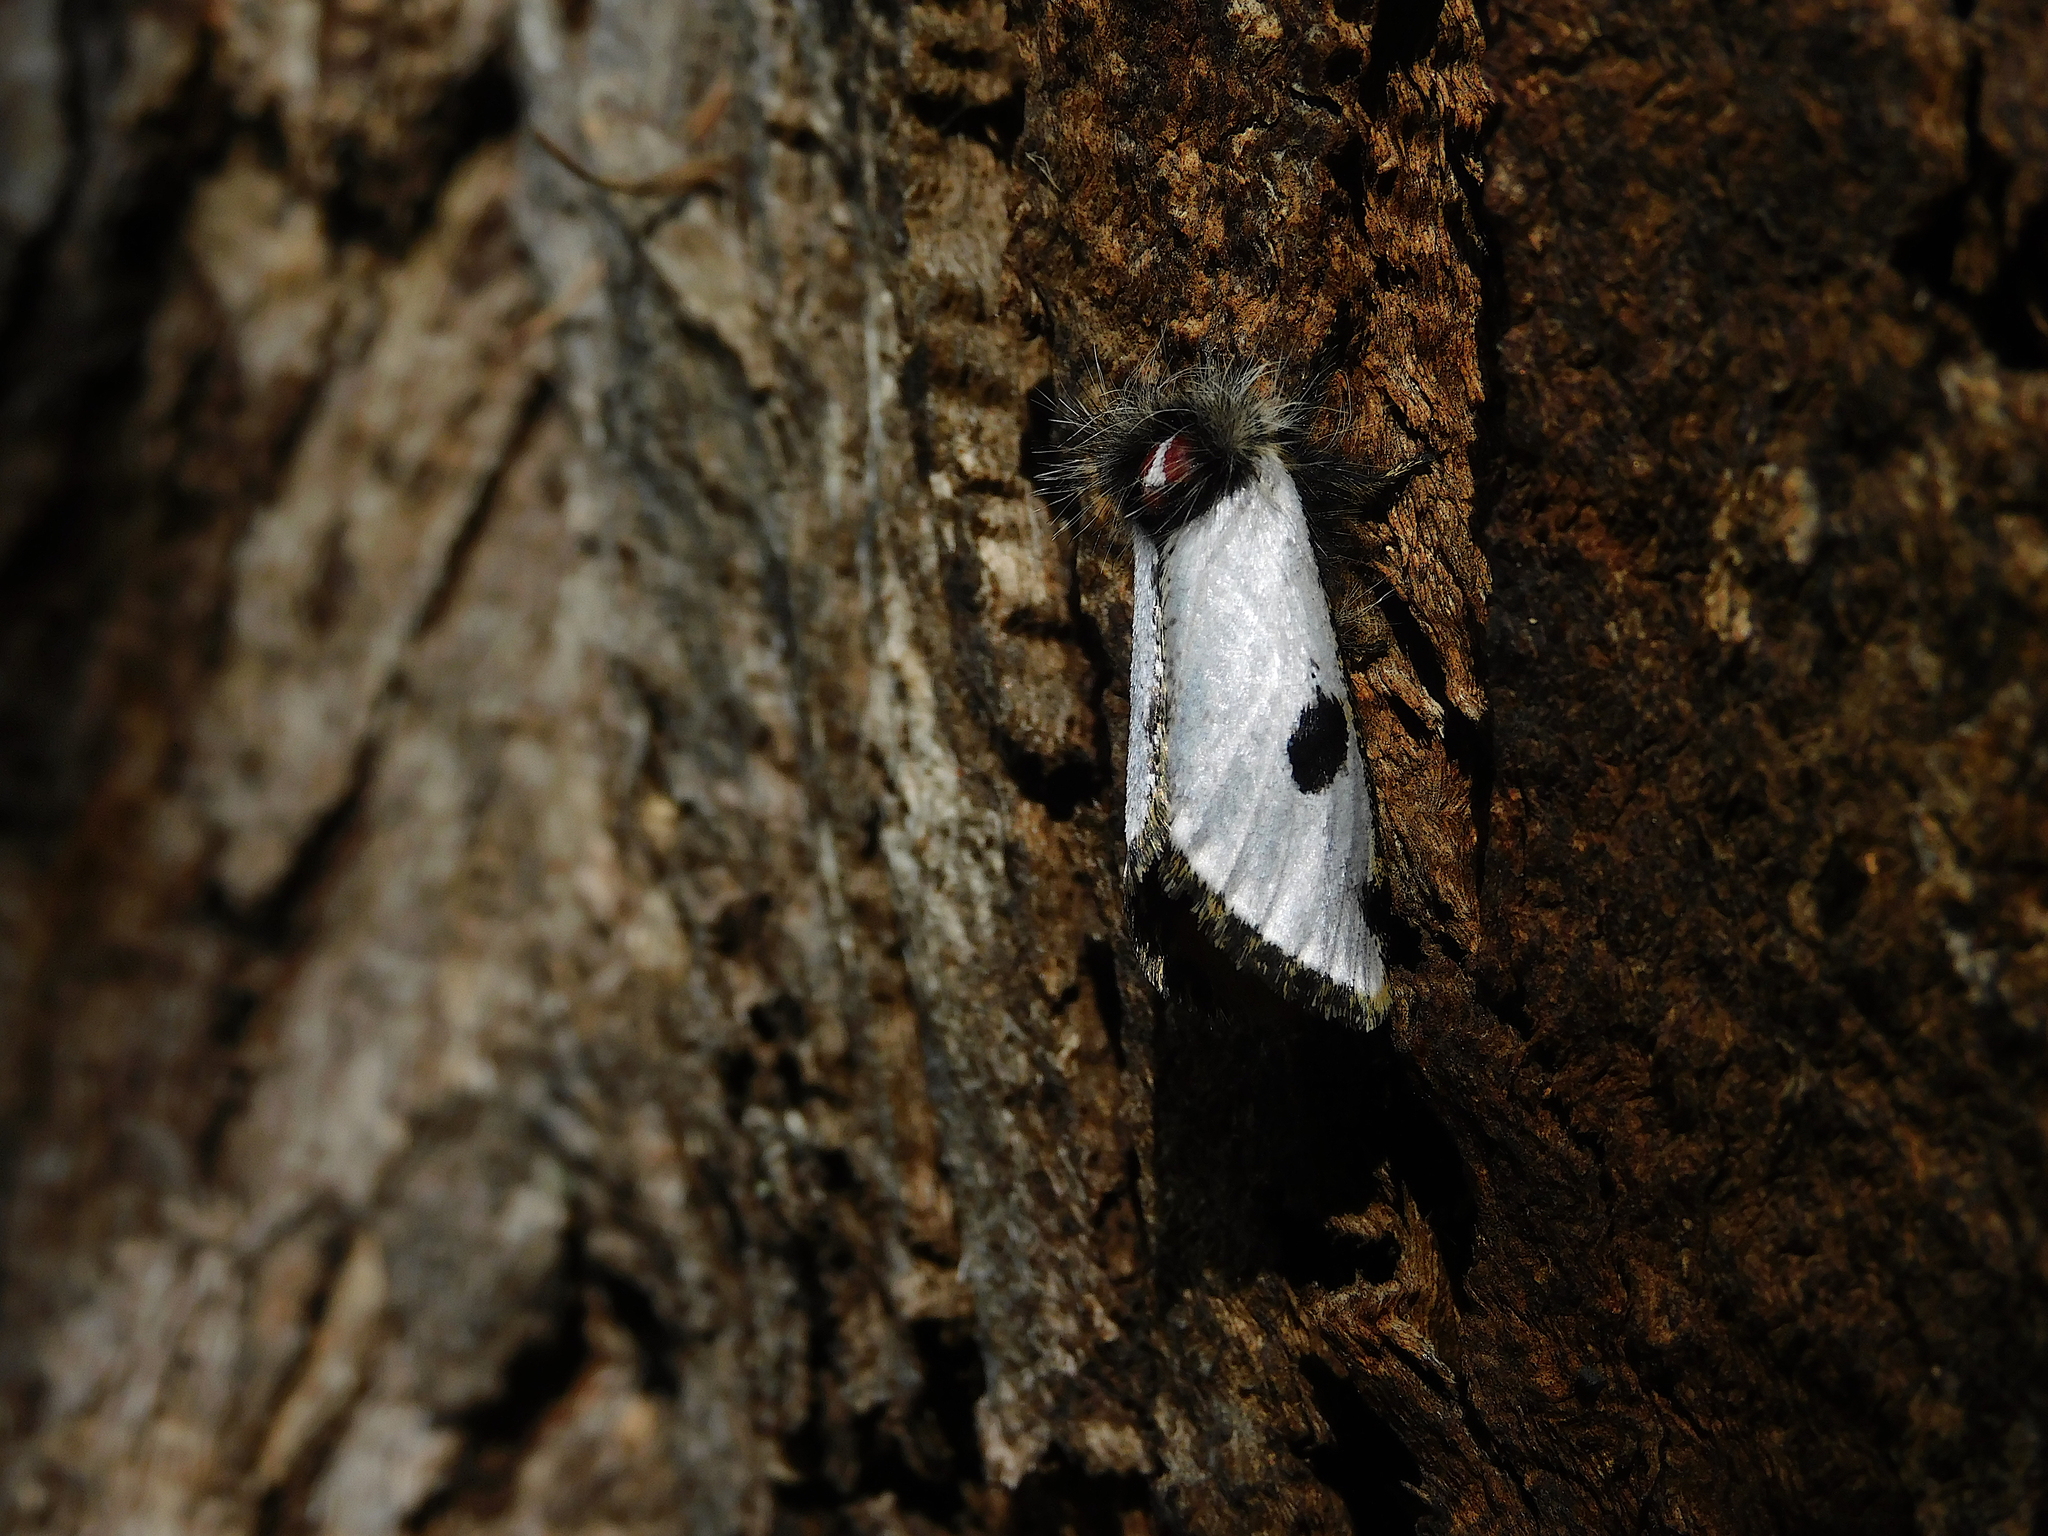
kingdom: Animalia
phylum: Arthropoda
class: Insecta
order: Lepidoptera
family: Notodontidae
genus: Epicoma
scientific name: Epicoma melanospila
